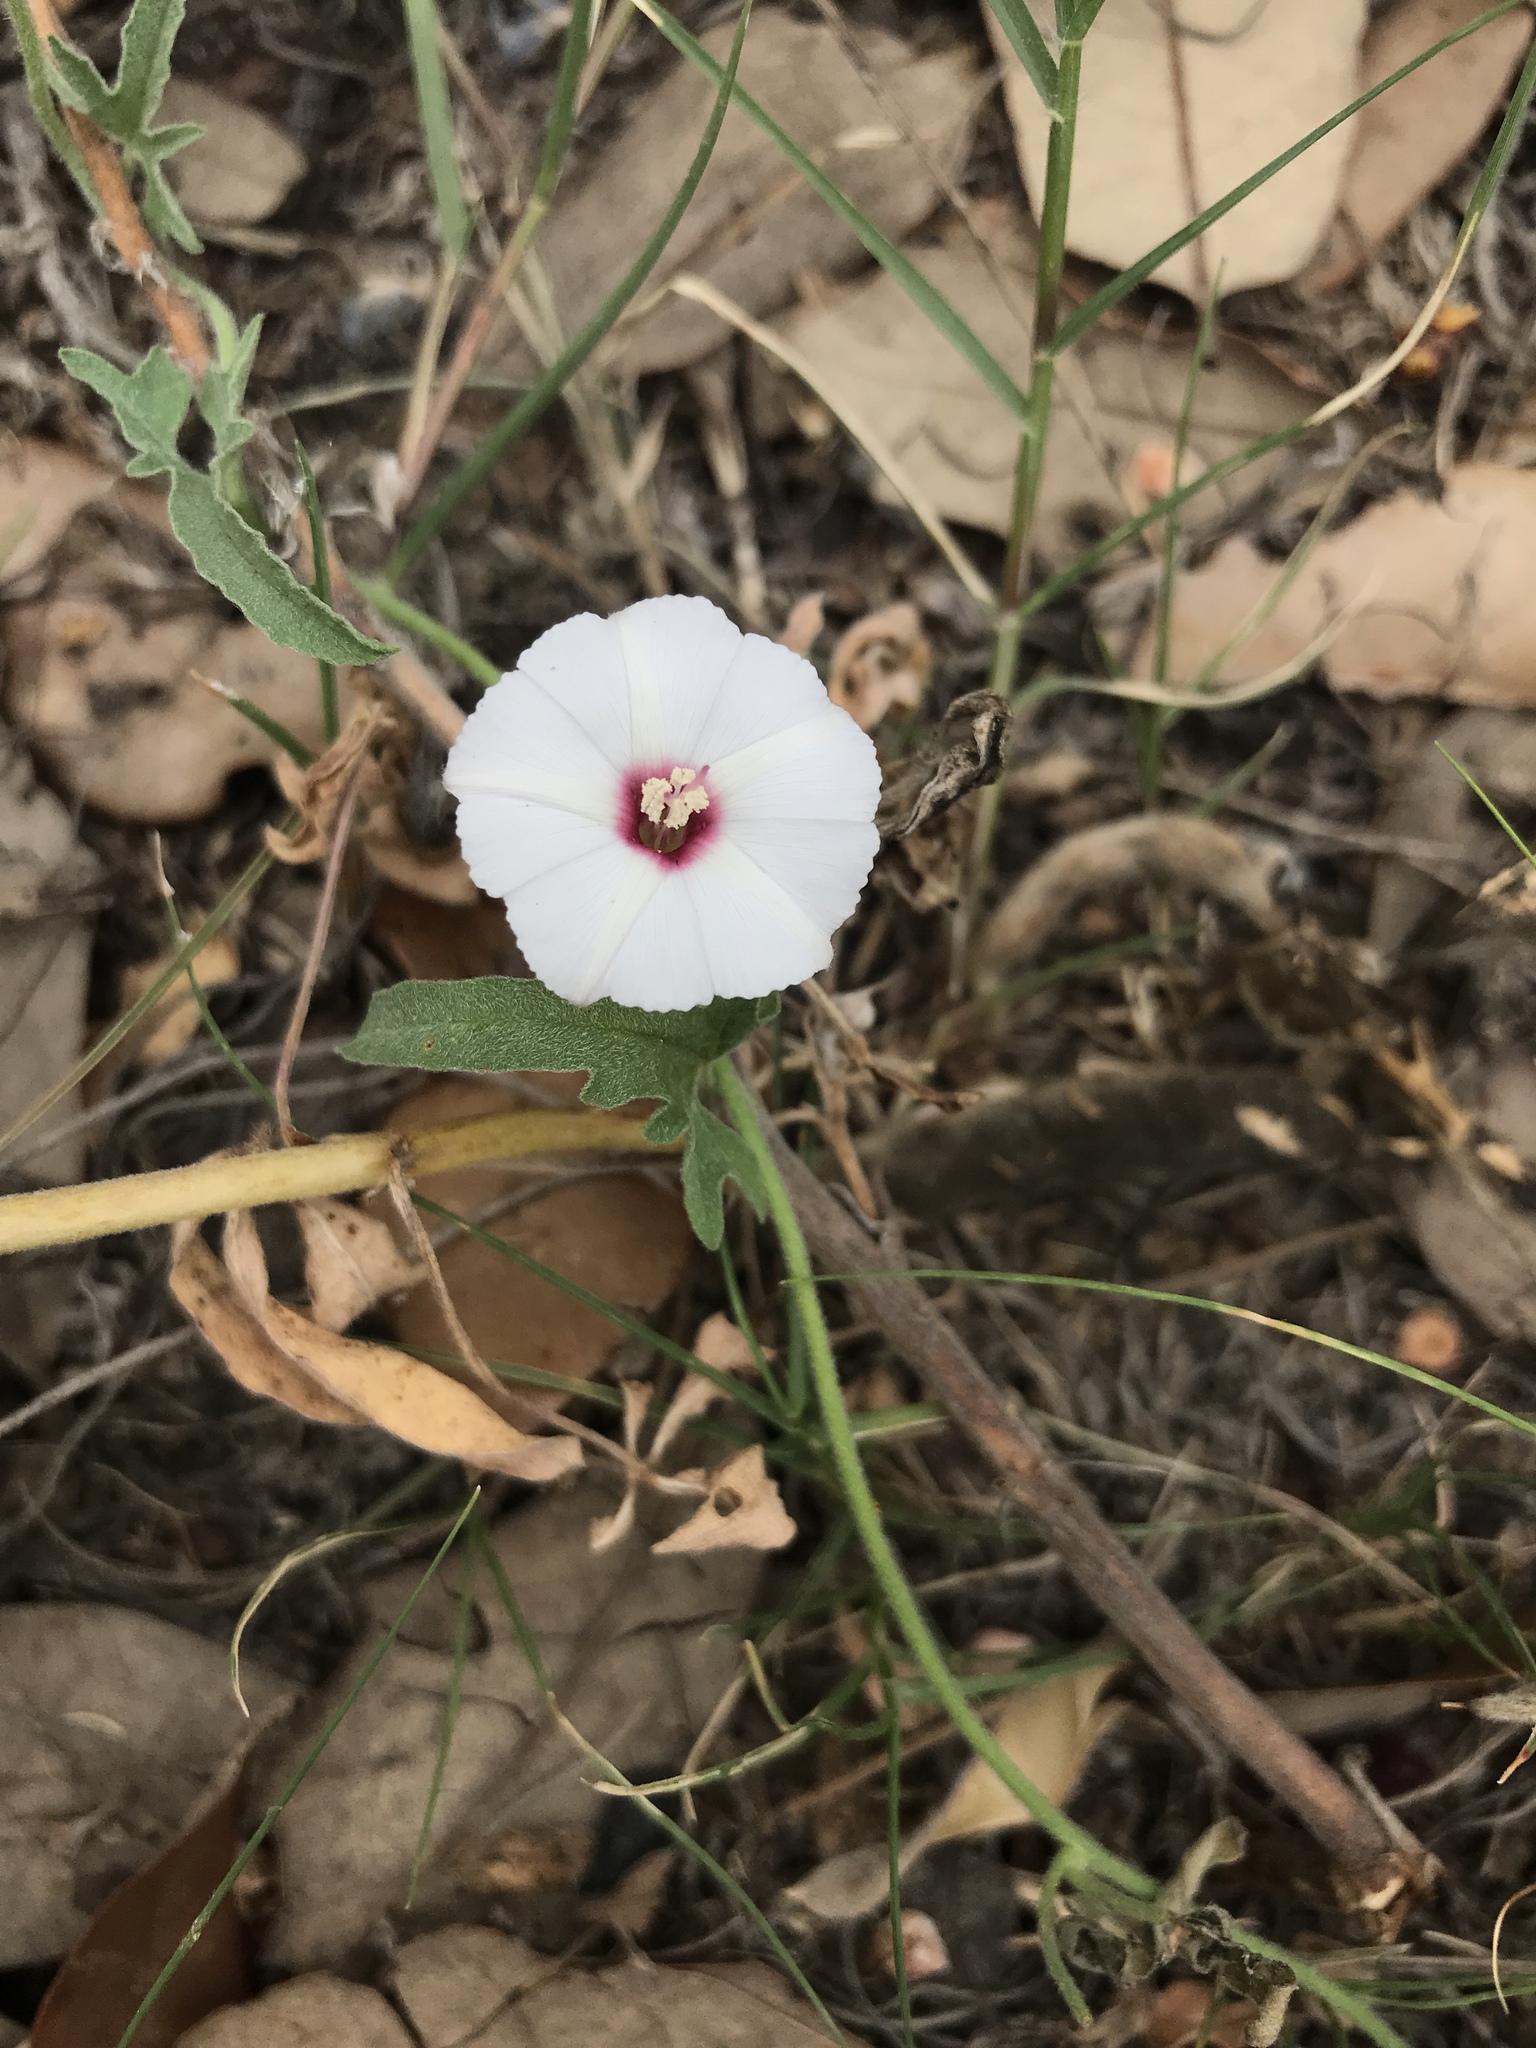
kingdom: Plantae
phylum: Tracheophyta
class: Magnoliopsida
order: Solanales
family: Convolvulaceae
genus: Convolvulus
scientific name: Convolvulus equitans
